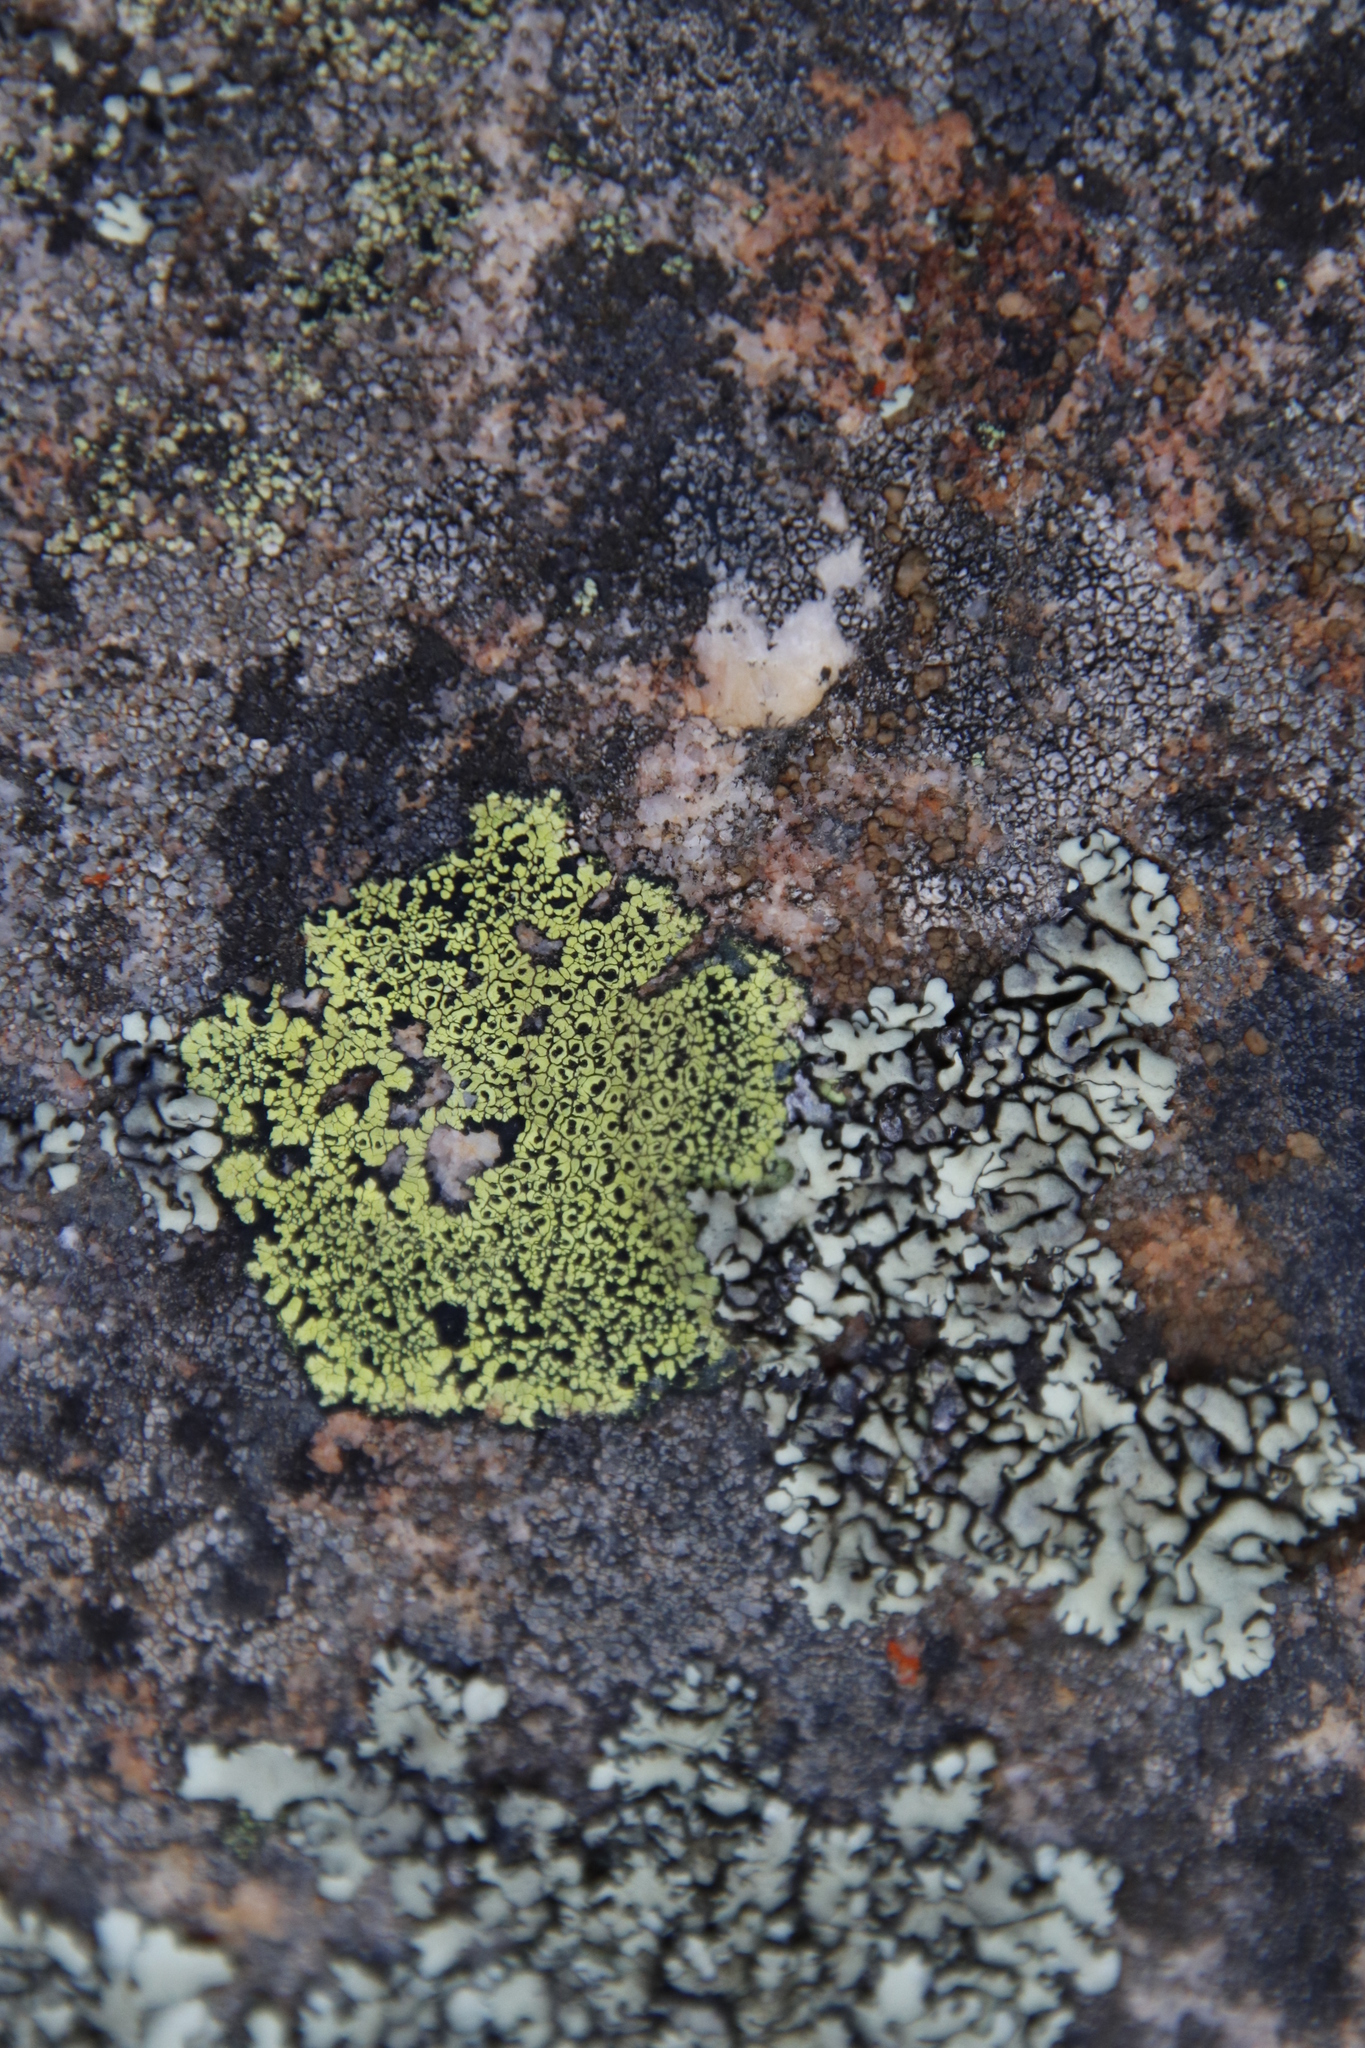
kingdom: Fungi
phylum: Ascomycota
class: Lecanoromycetes
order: Rhizocarpales
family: Rhizocarpaceae
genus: Rhizocarpon
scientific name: Rhizocarpon lecanorinum
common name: Crescent map lichen
